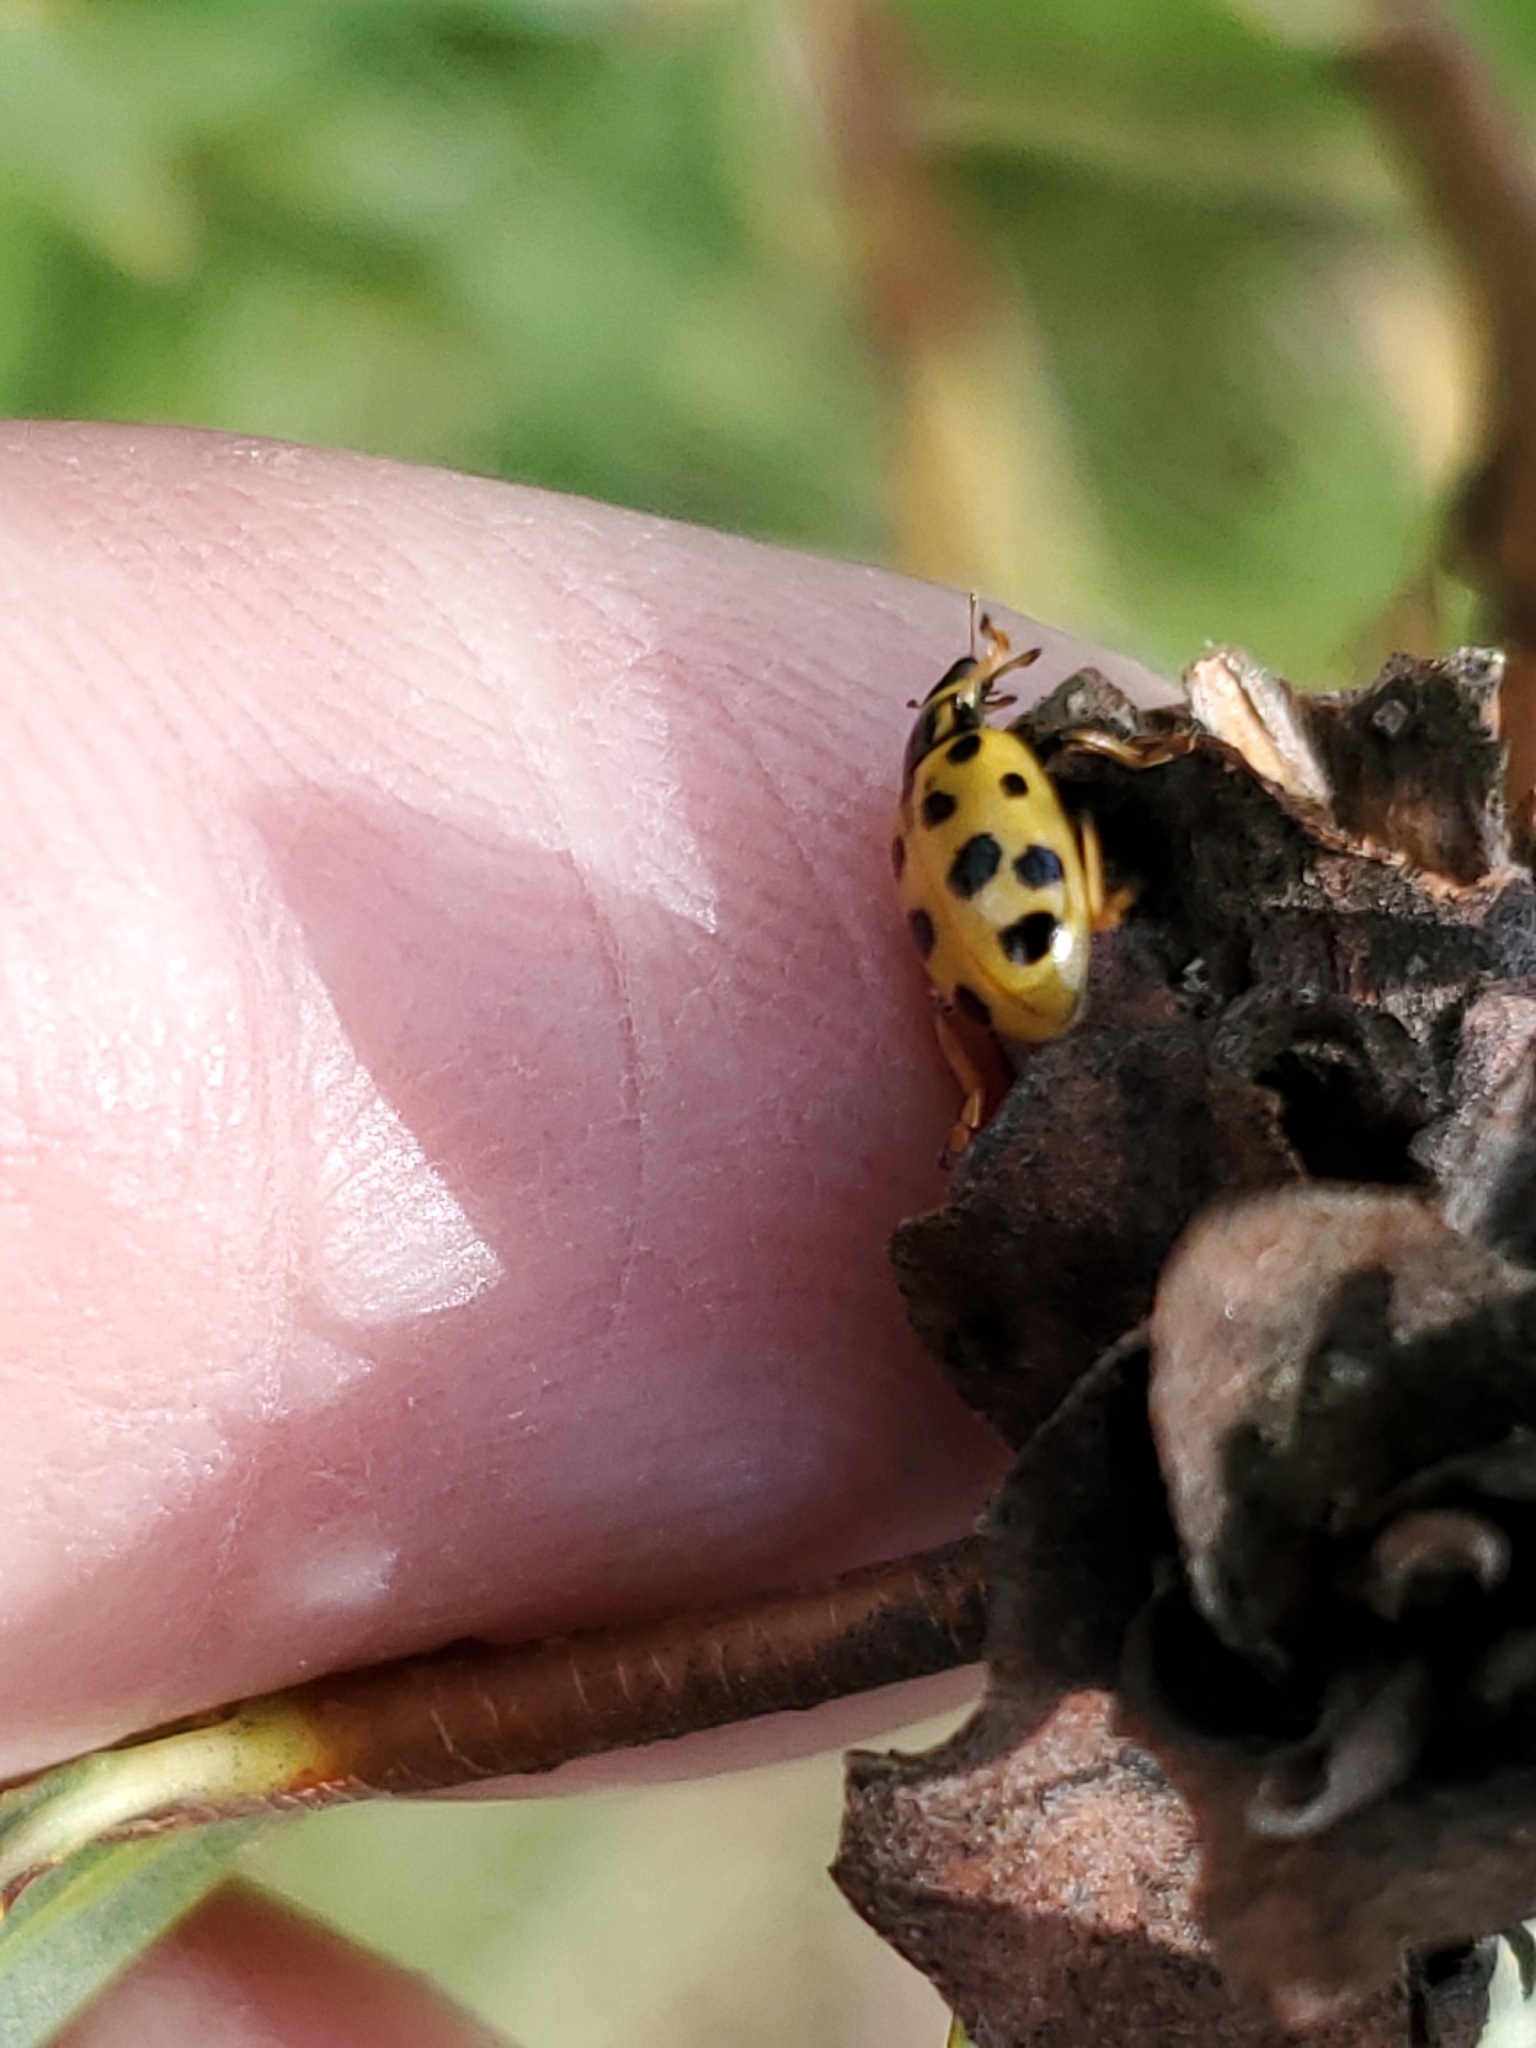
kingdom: Animalia
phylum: Arthropoda
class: Insecta
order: Coleoptera
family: Coccinellidae
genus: Hippodamia
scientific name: Hippodamia tredecimpunctata
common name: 13-spot ladybird
